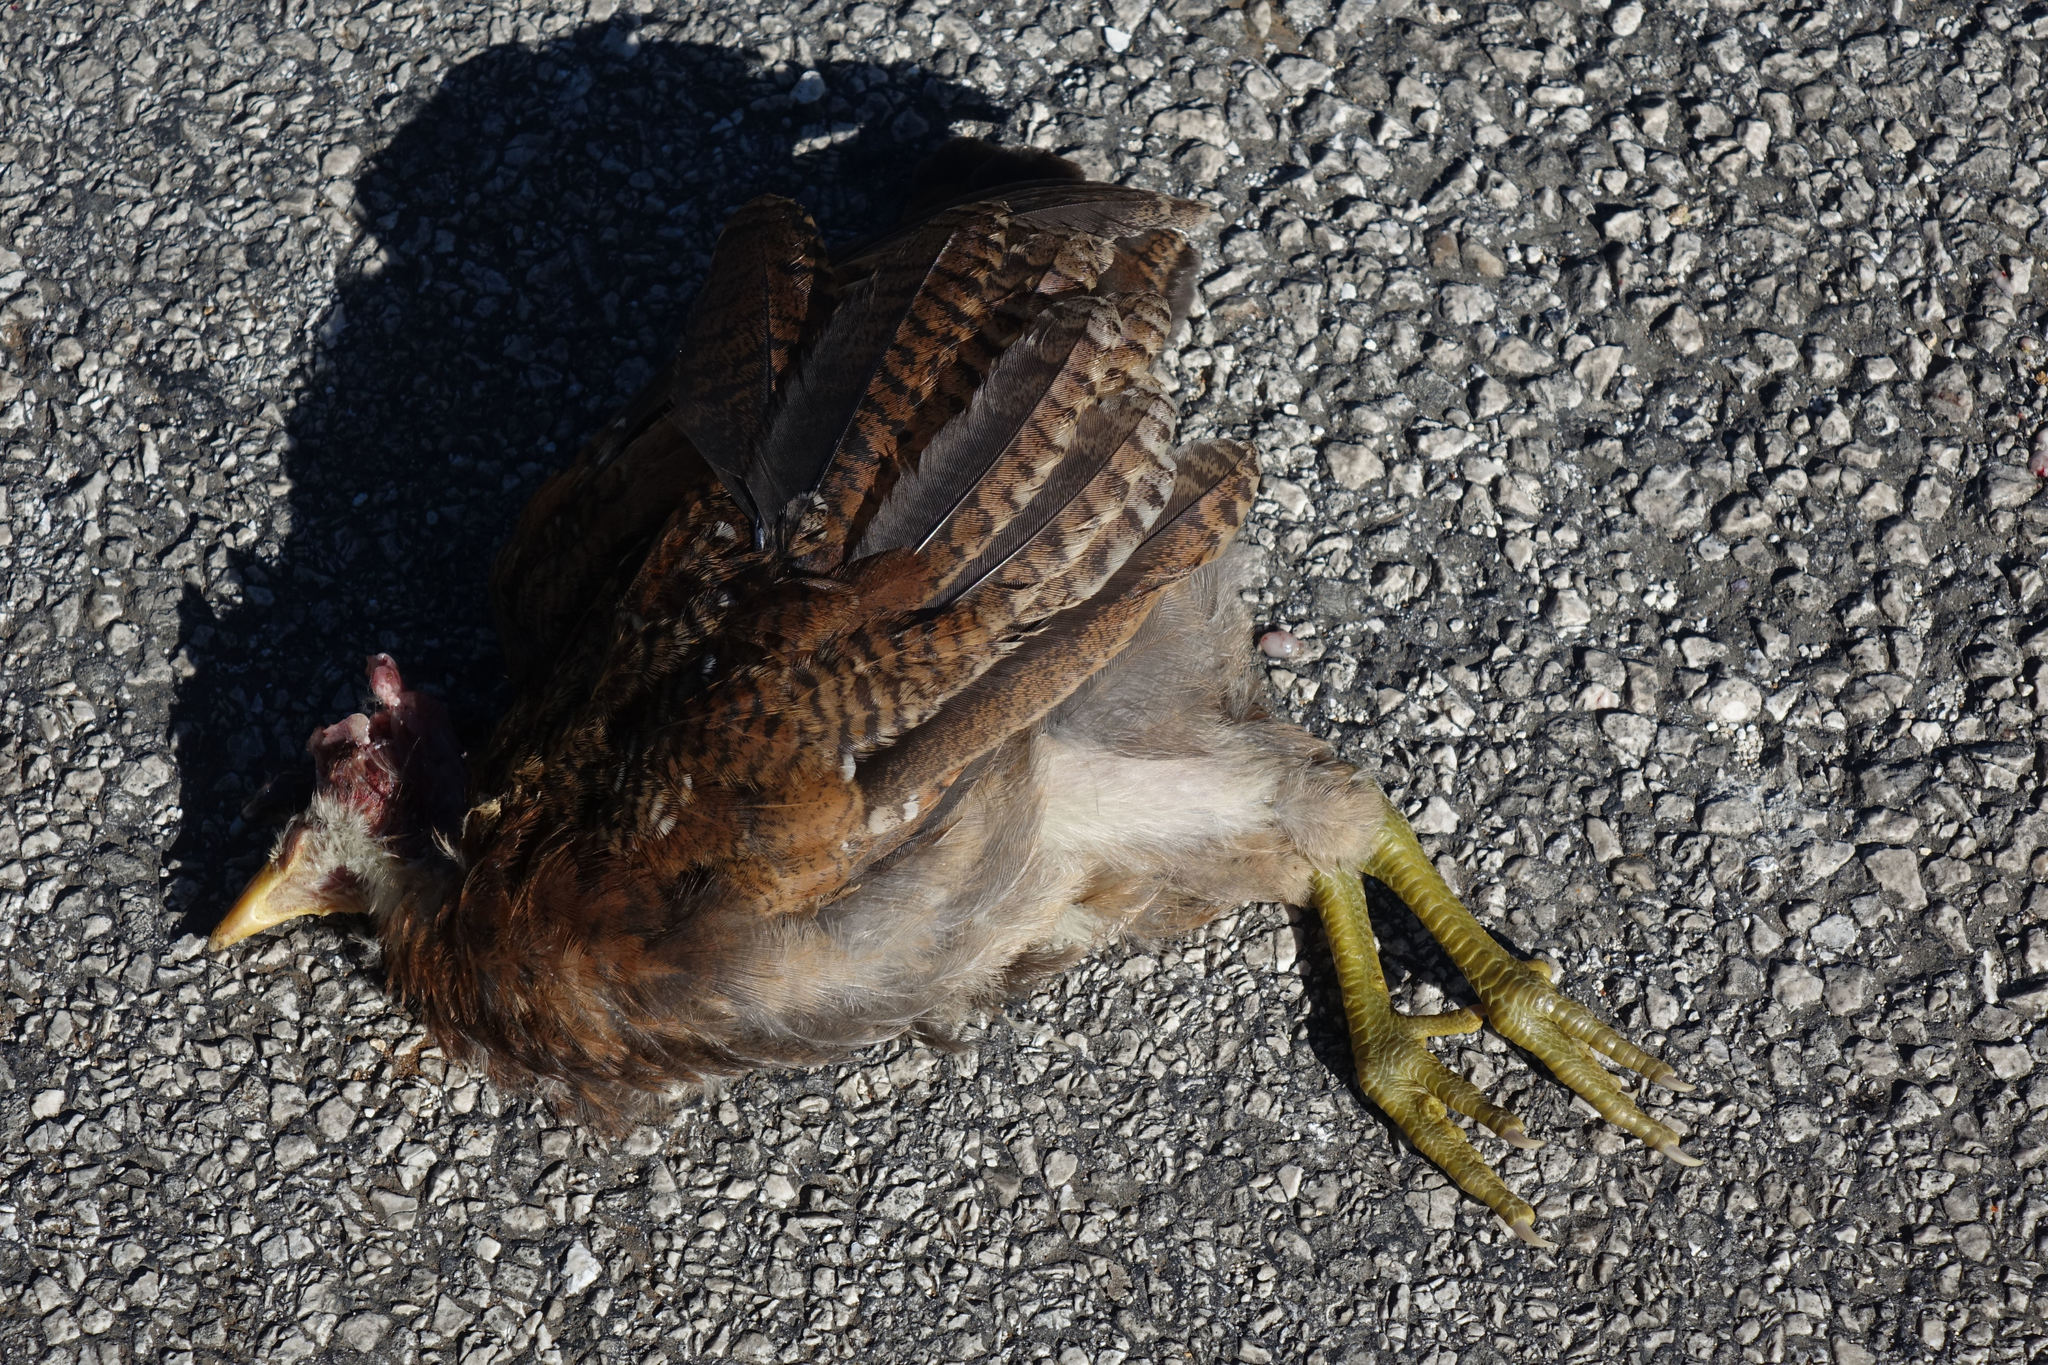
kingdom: Animalia
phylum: Chordata
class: Aves
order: Gruiformes
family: Rallidae
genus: Gallirallus
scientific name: Gallirallus philippensis
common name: Buff-banded rail
